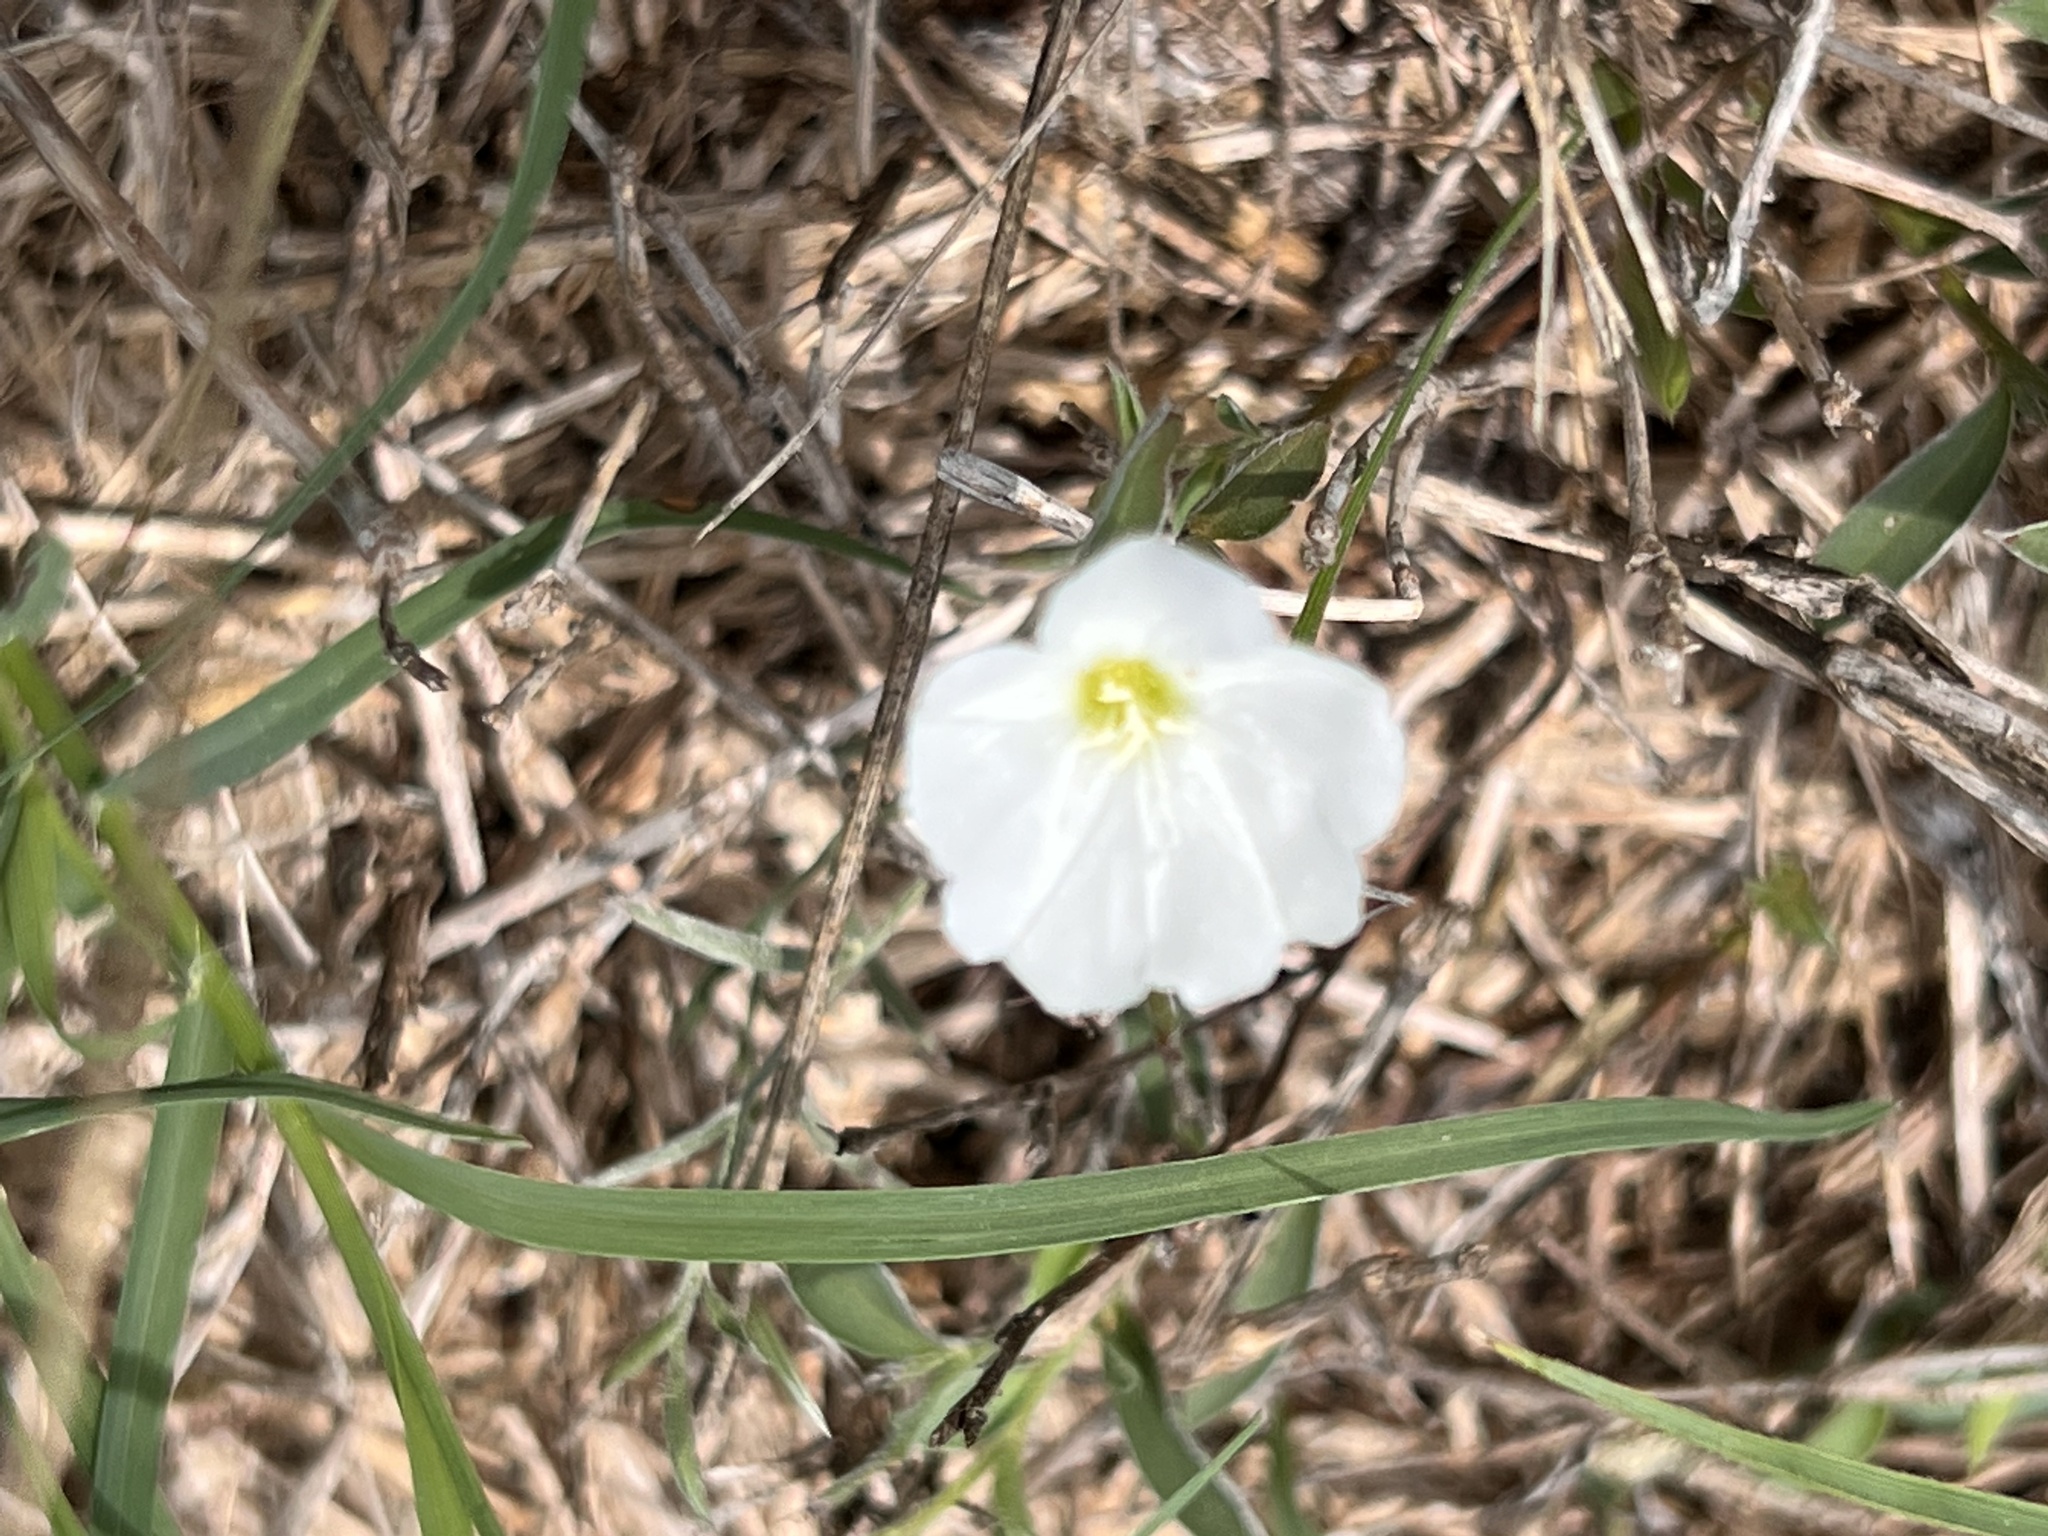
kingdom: Plantae
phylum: Tracheophyta
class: Magnoliopsida
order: Solanales
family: Convolvulaceae
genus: Evolvulus
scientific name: Evolvulus sericeus
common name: Blue dots
